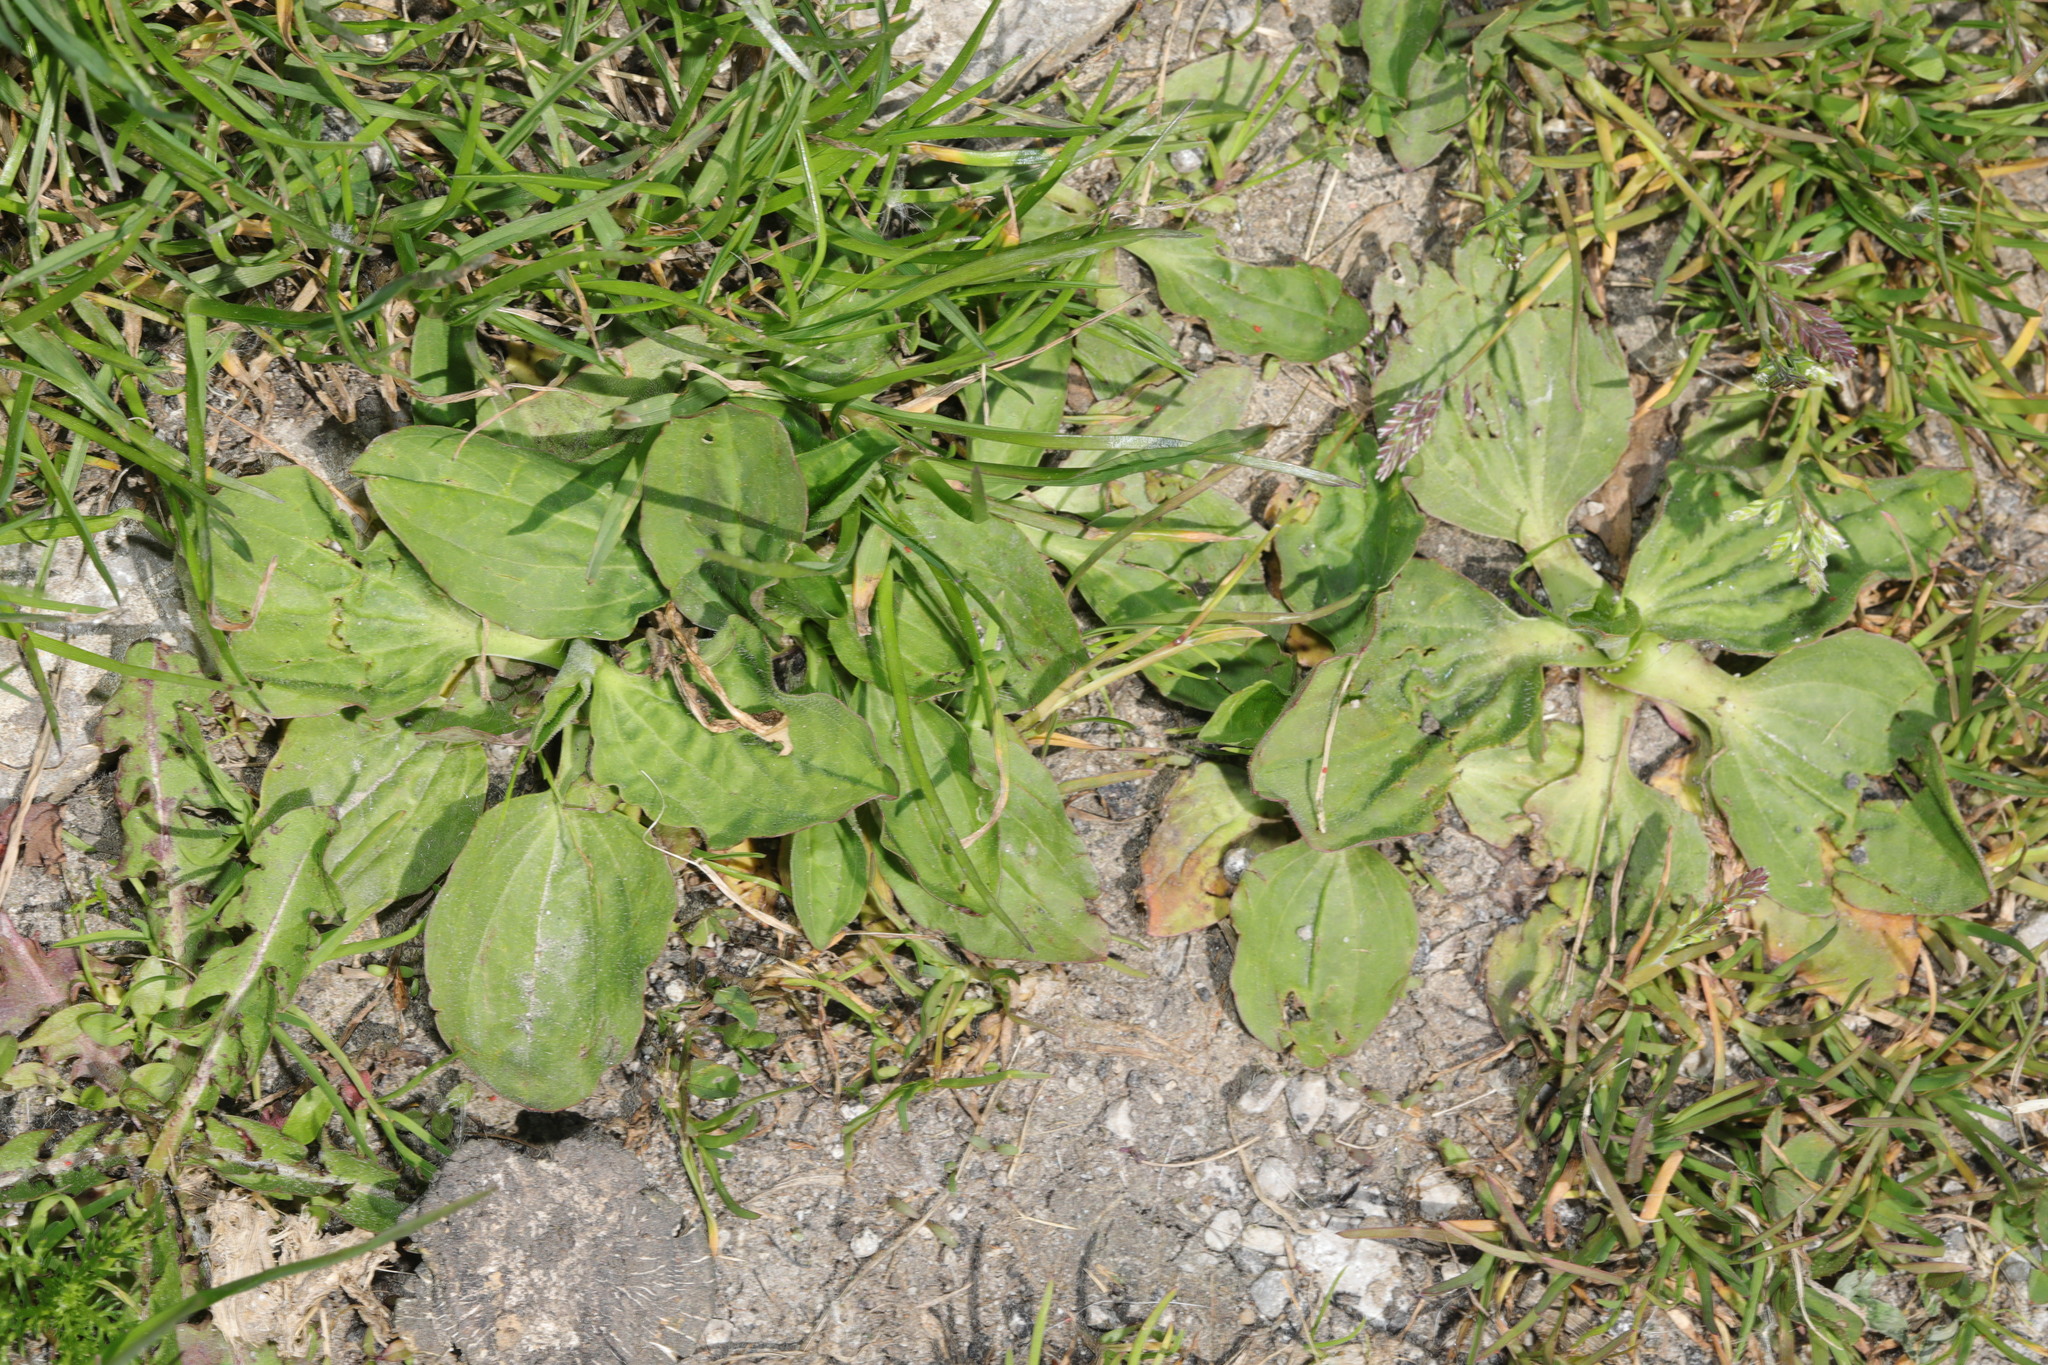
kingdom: Plantae
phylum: Tracheophyta
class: Magnoliopsida
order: Lamiales
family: Plantaginaceae
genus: Plantago
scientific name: Plantago major
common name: Common plantain
